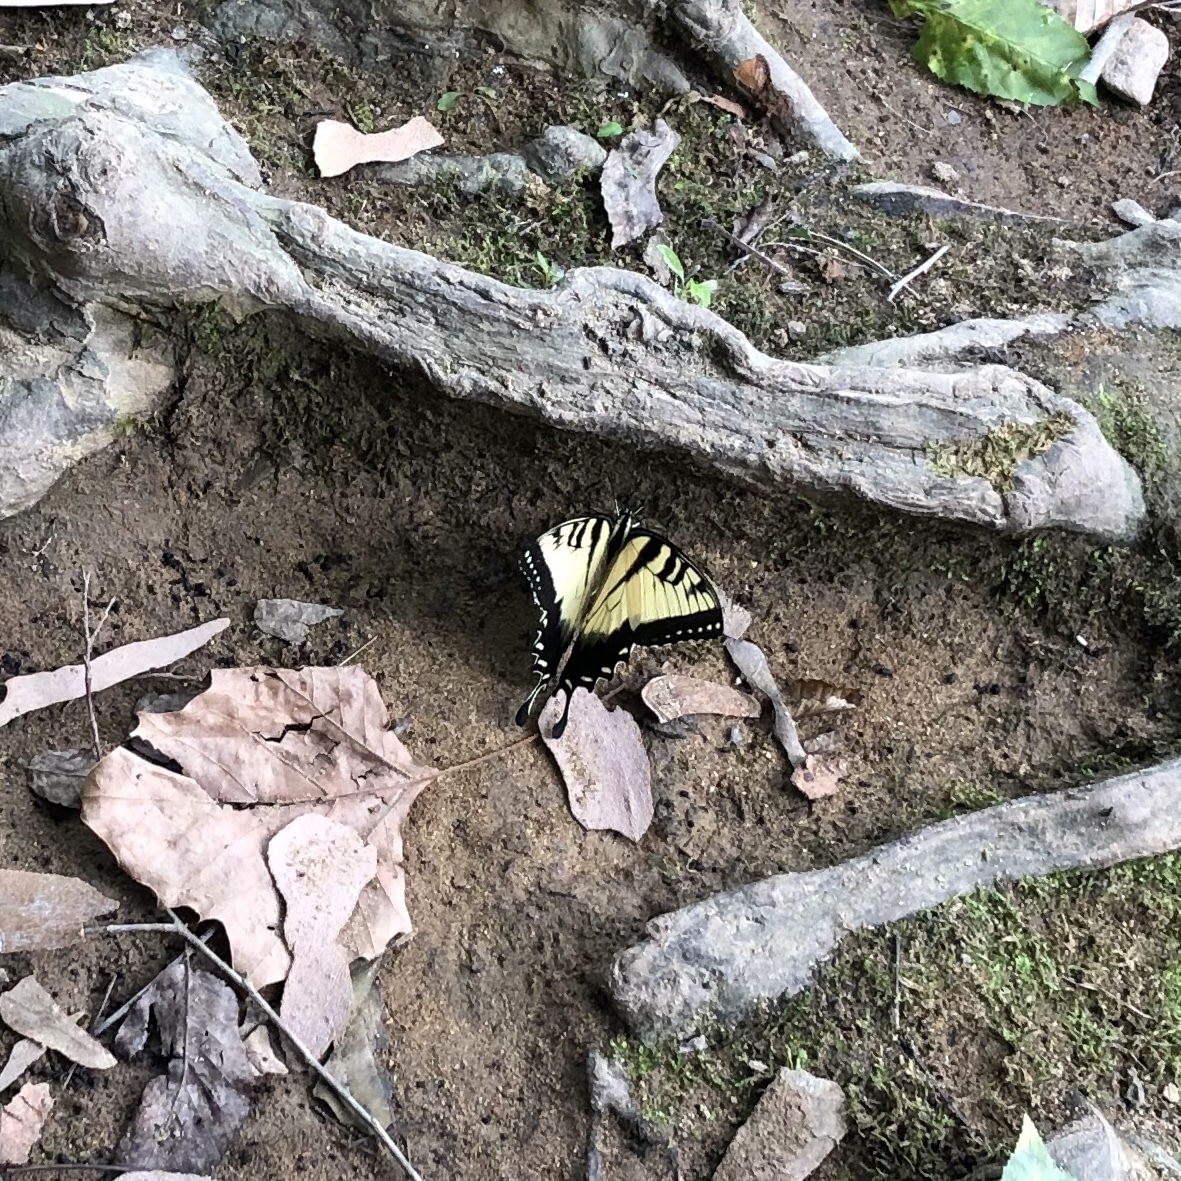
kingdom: Animalia
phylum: Arthropoda
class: Insecta
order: Lepidoptera
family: Papilionidae
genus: Papilio
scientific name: Papilio glaucus
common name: Tiger swallowtail
